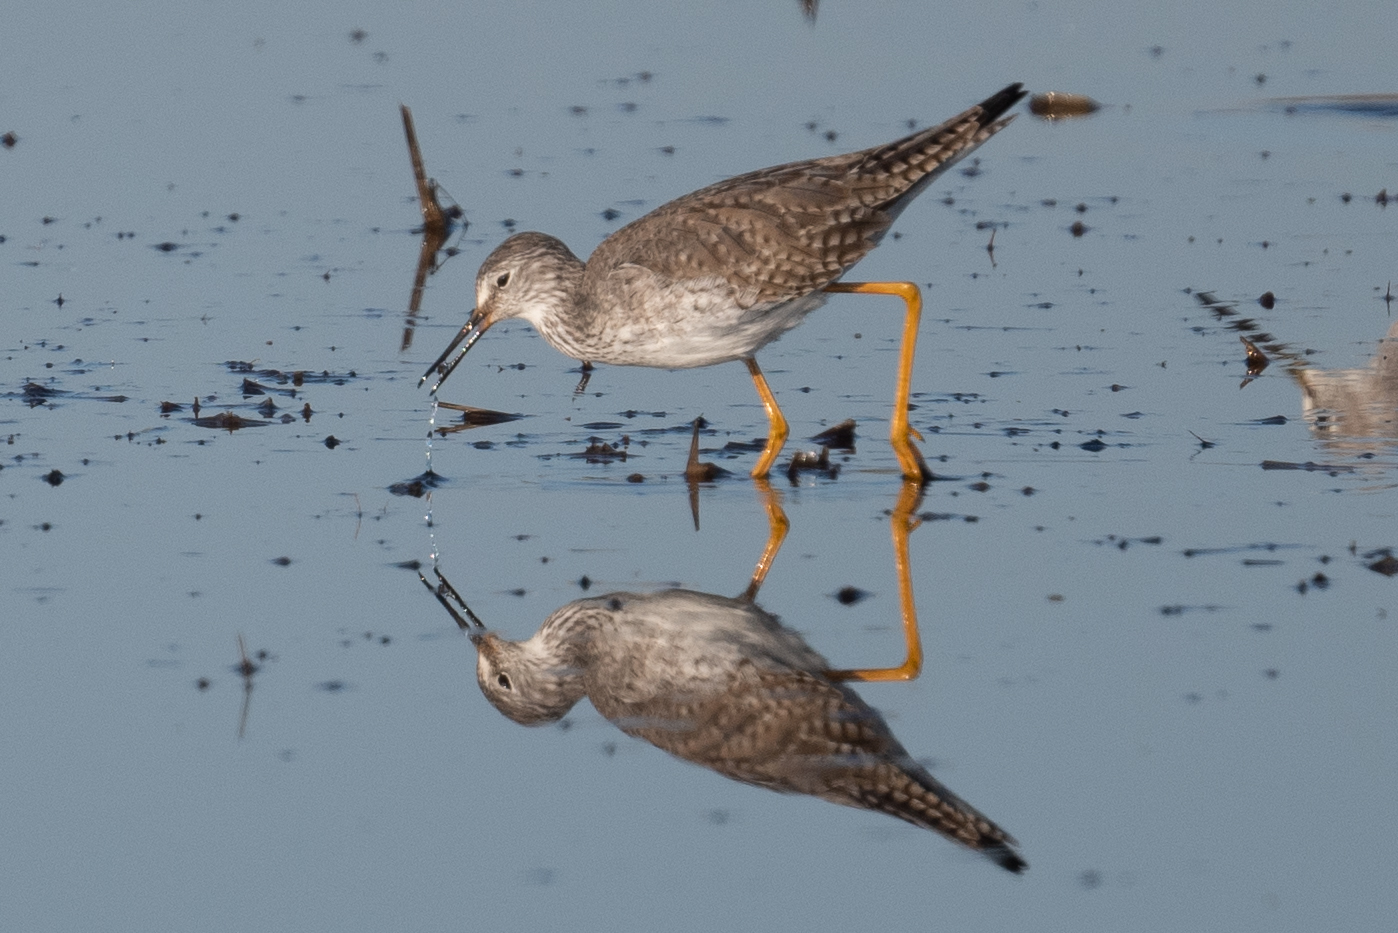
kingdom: Animalia
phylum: Chordata
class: Aves
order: Charadriiformes
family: Scolopacidae
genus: Tringa
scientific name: Tringa flavipes
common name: Lesser yellowlegs
